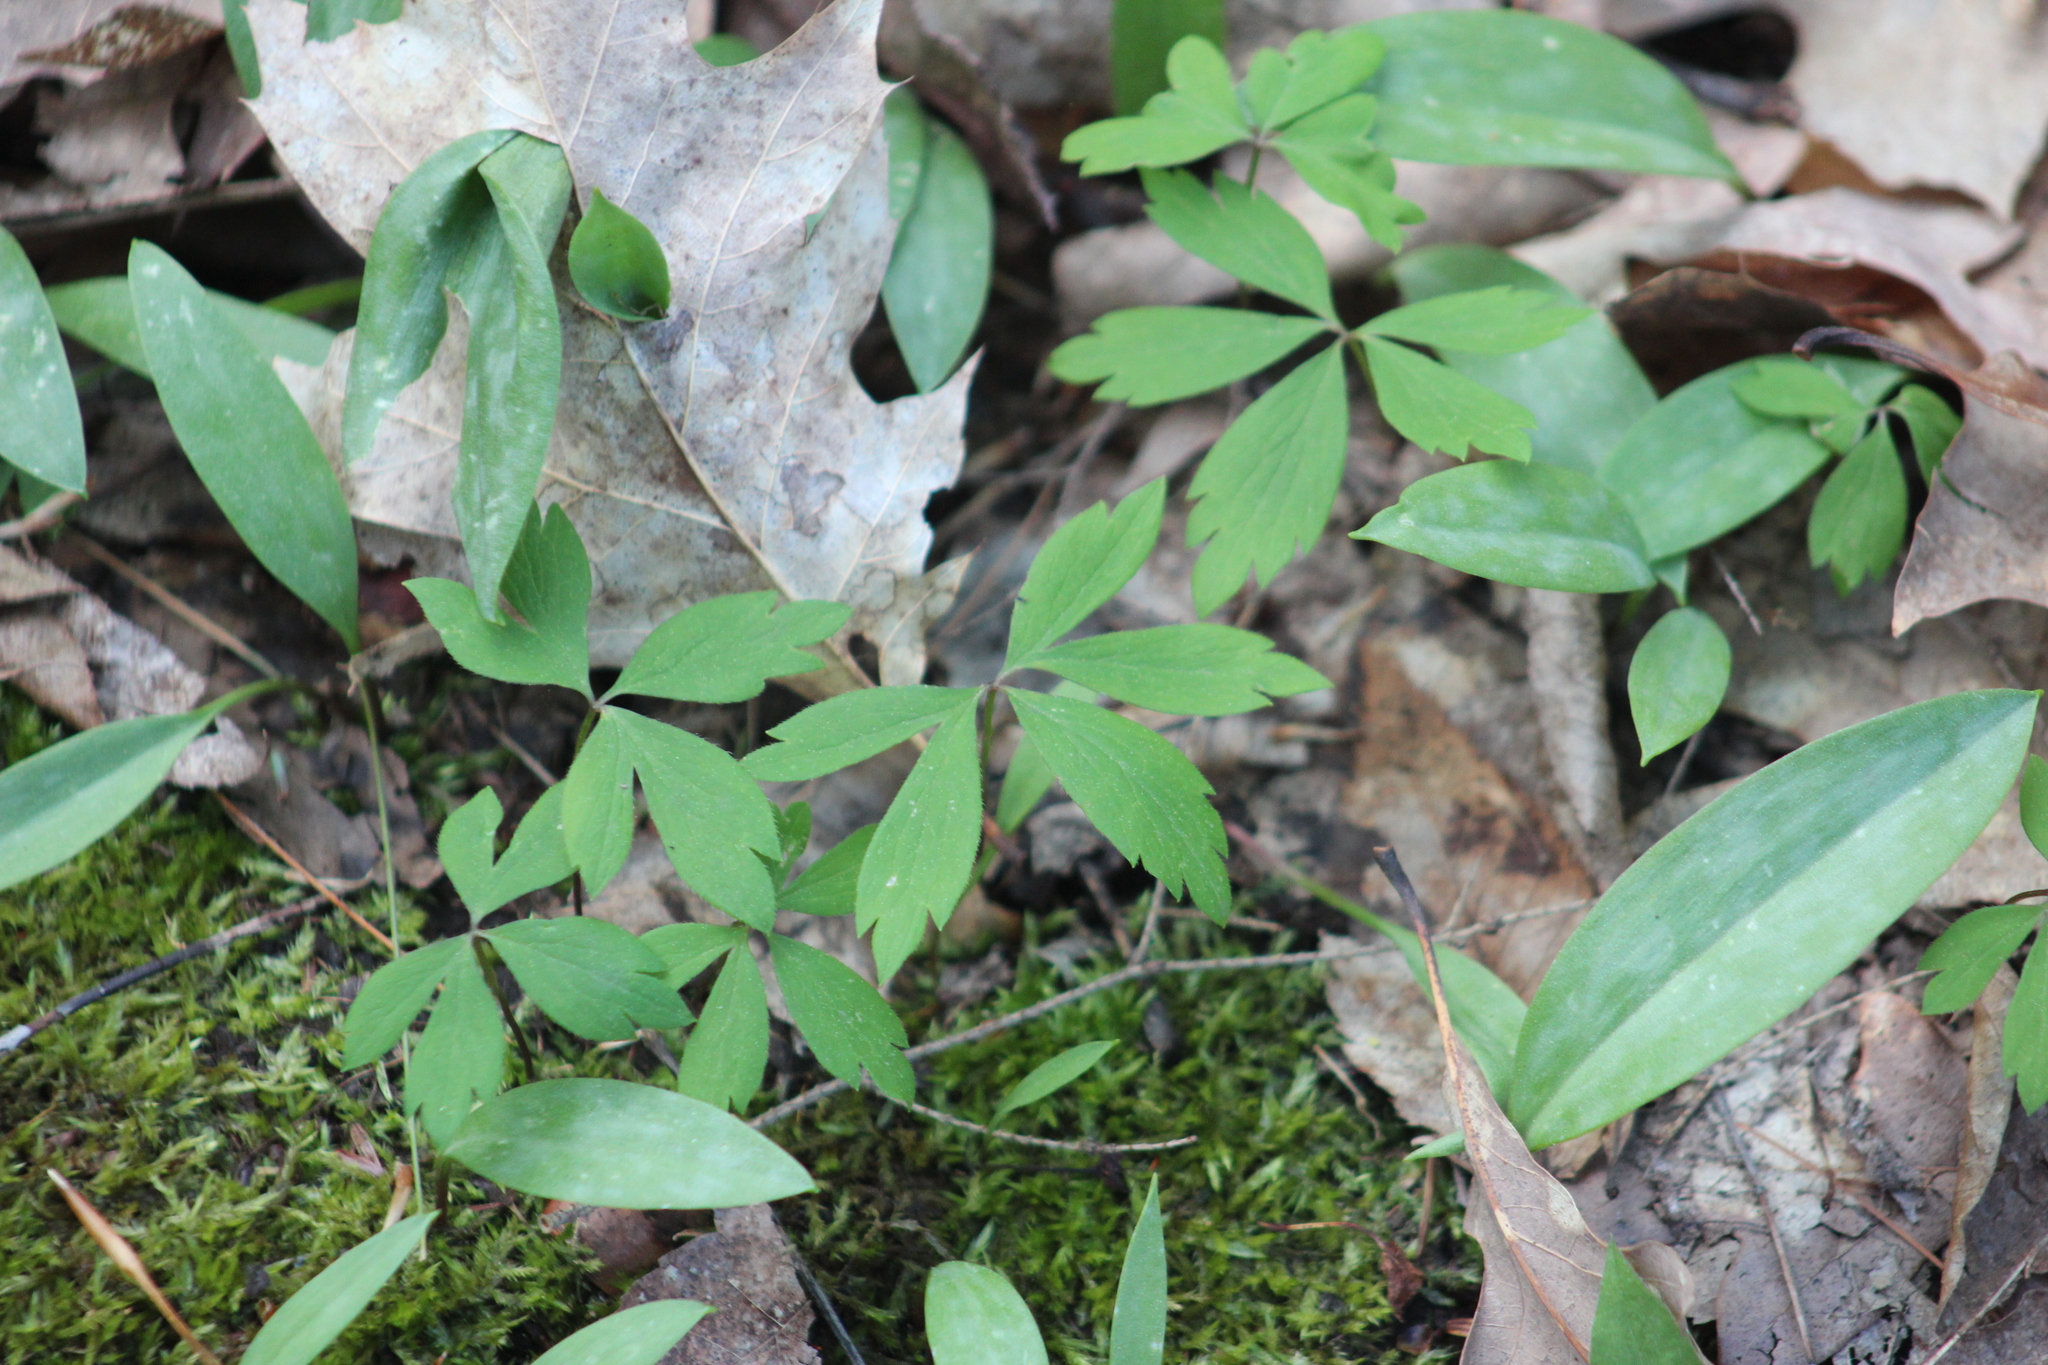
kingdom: Plantae
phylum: Tracheophyta
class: Magnoliopsida
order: Ranunculales
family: Ranunculaceae
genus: Anemone
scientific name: Anemone quinquefolia
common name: Wood anemone
